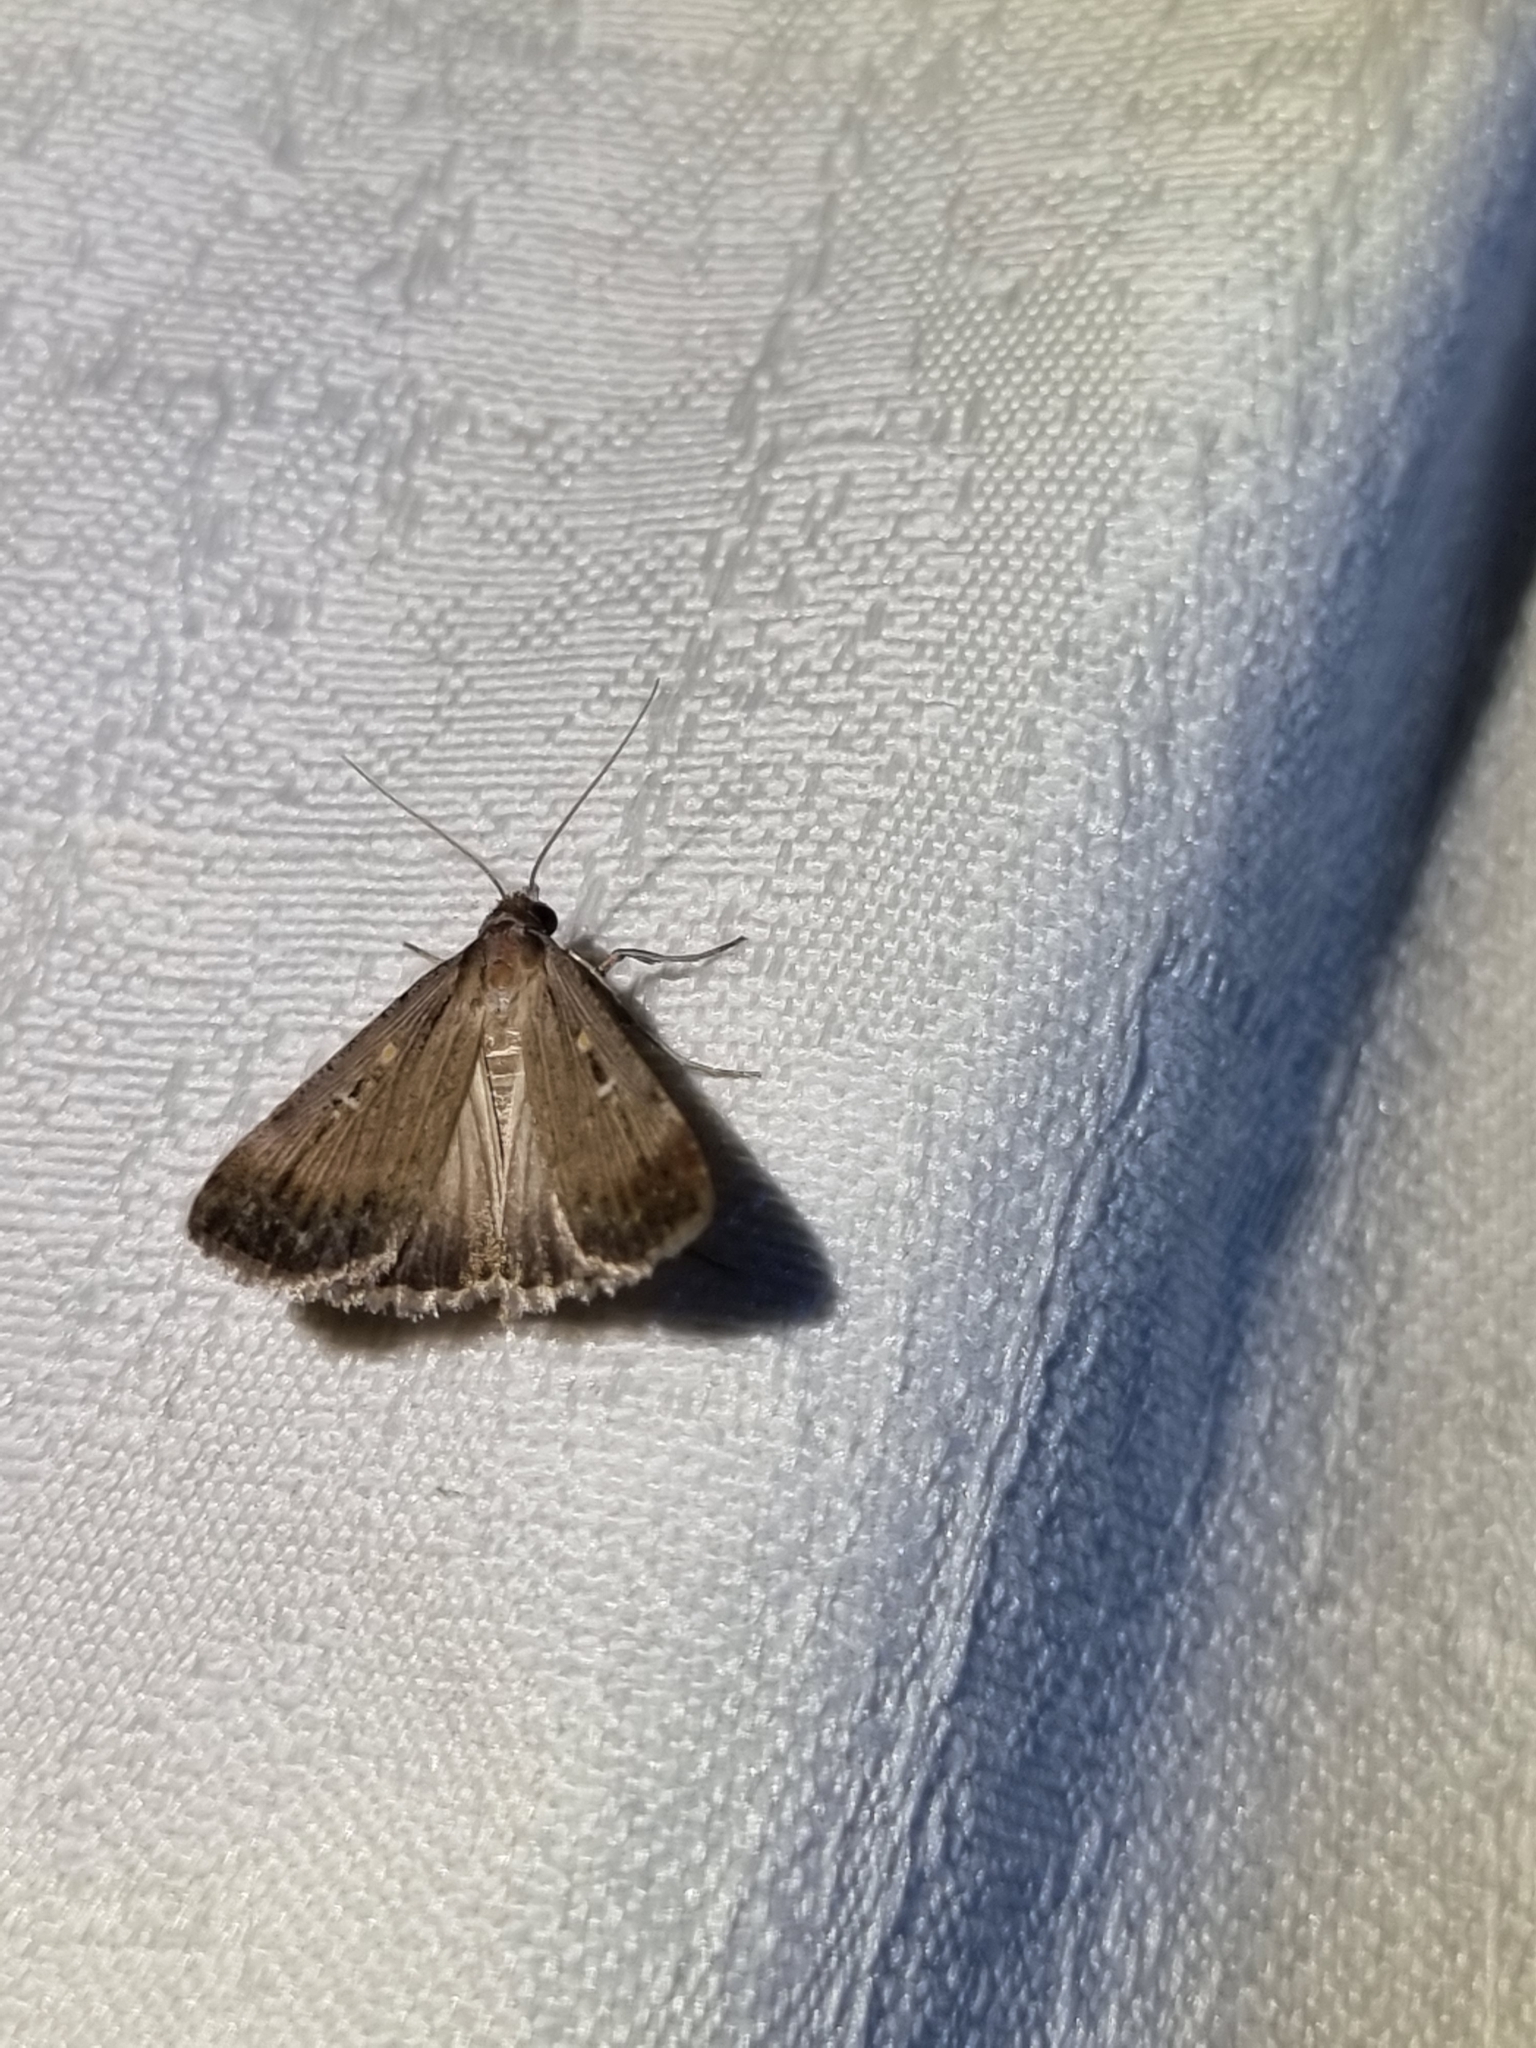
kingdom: Animalia
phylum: Arthropoda
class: Insecta
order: Lepidoptera
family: Noctuidae
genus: Tathorhynchus
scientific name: Tathorhynchus fallax
